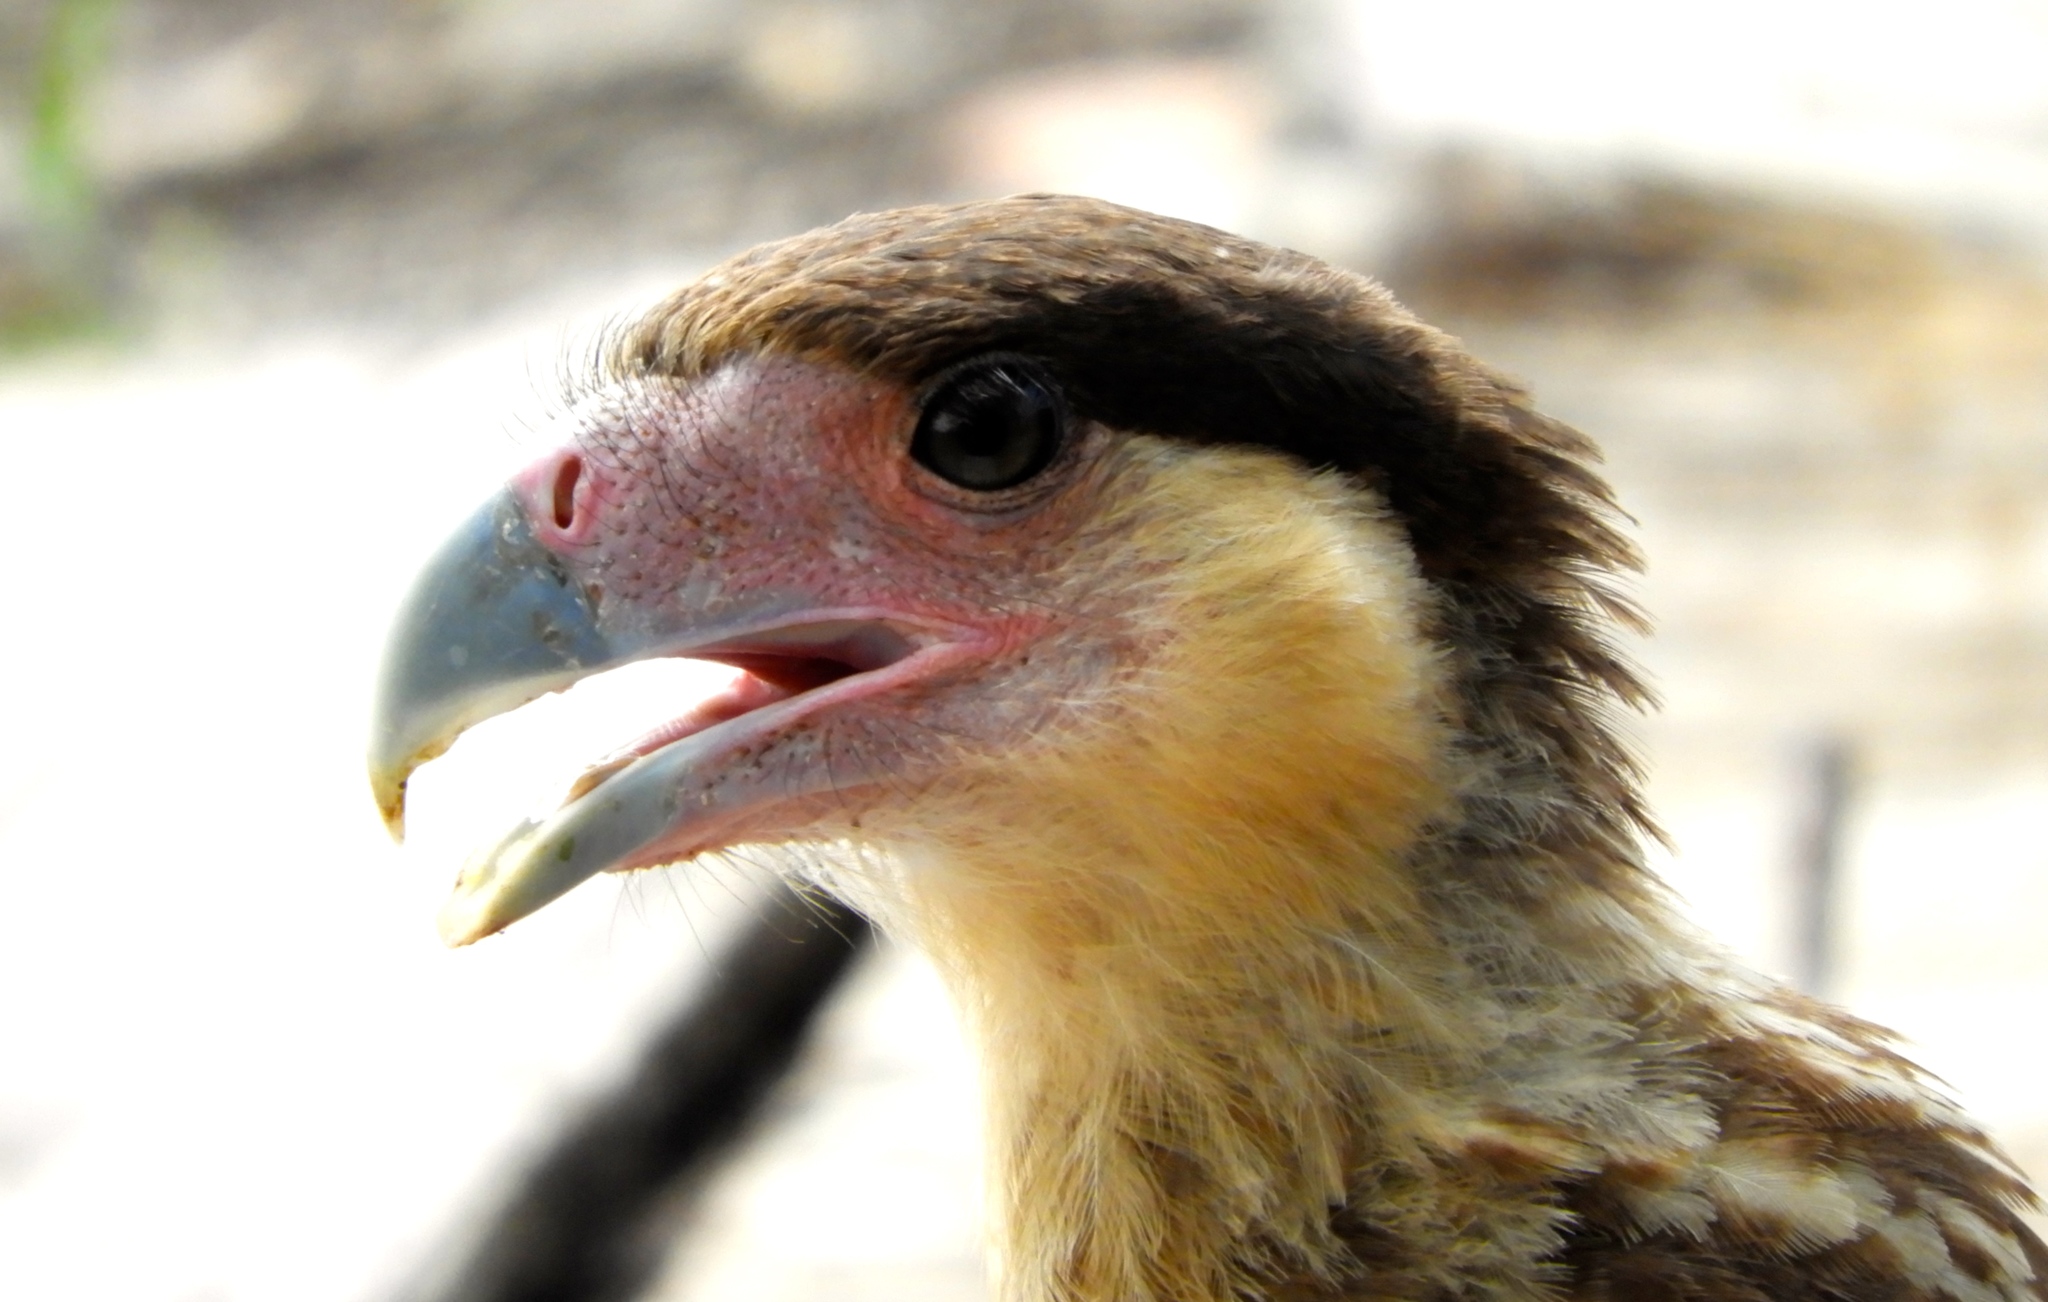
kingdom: Animalia
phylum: Chordata
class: Aves
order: Falconiformes
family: Falconidae
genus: Caracara
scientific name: Caracara plancus
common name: Southern caracara
